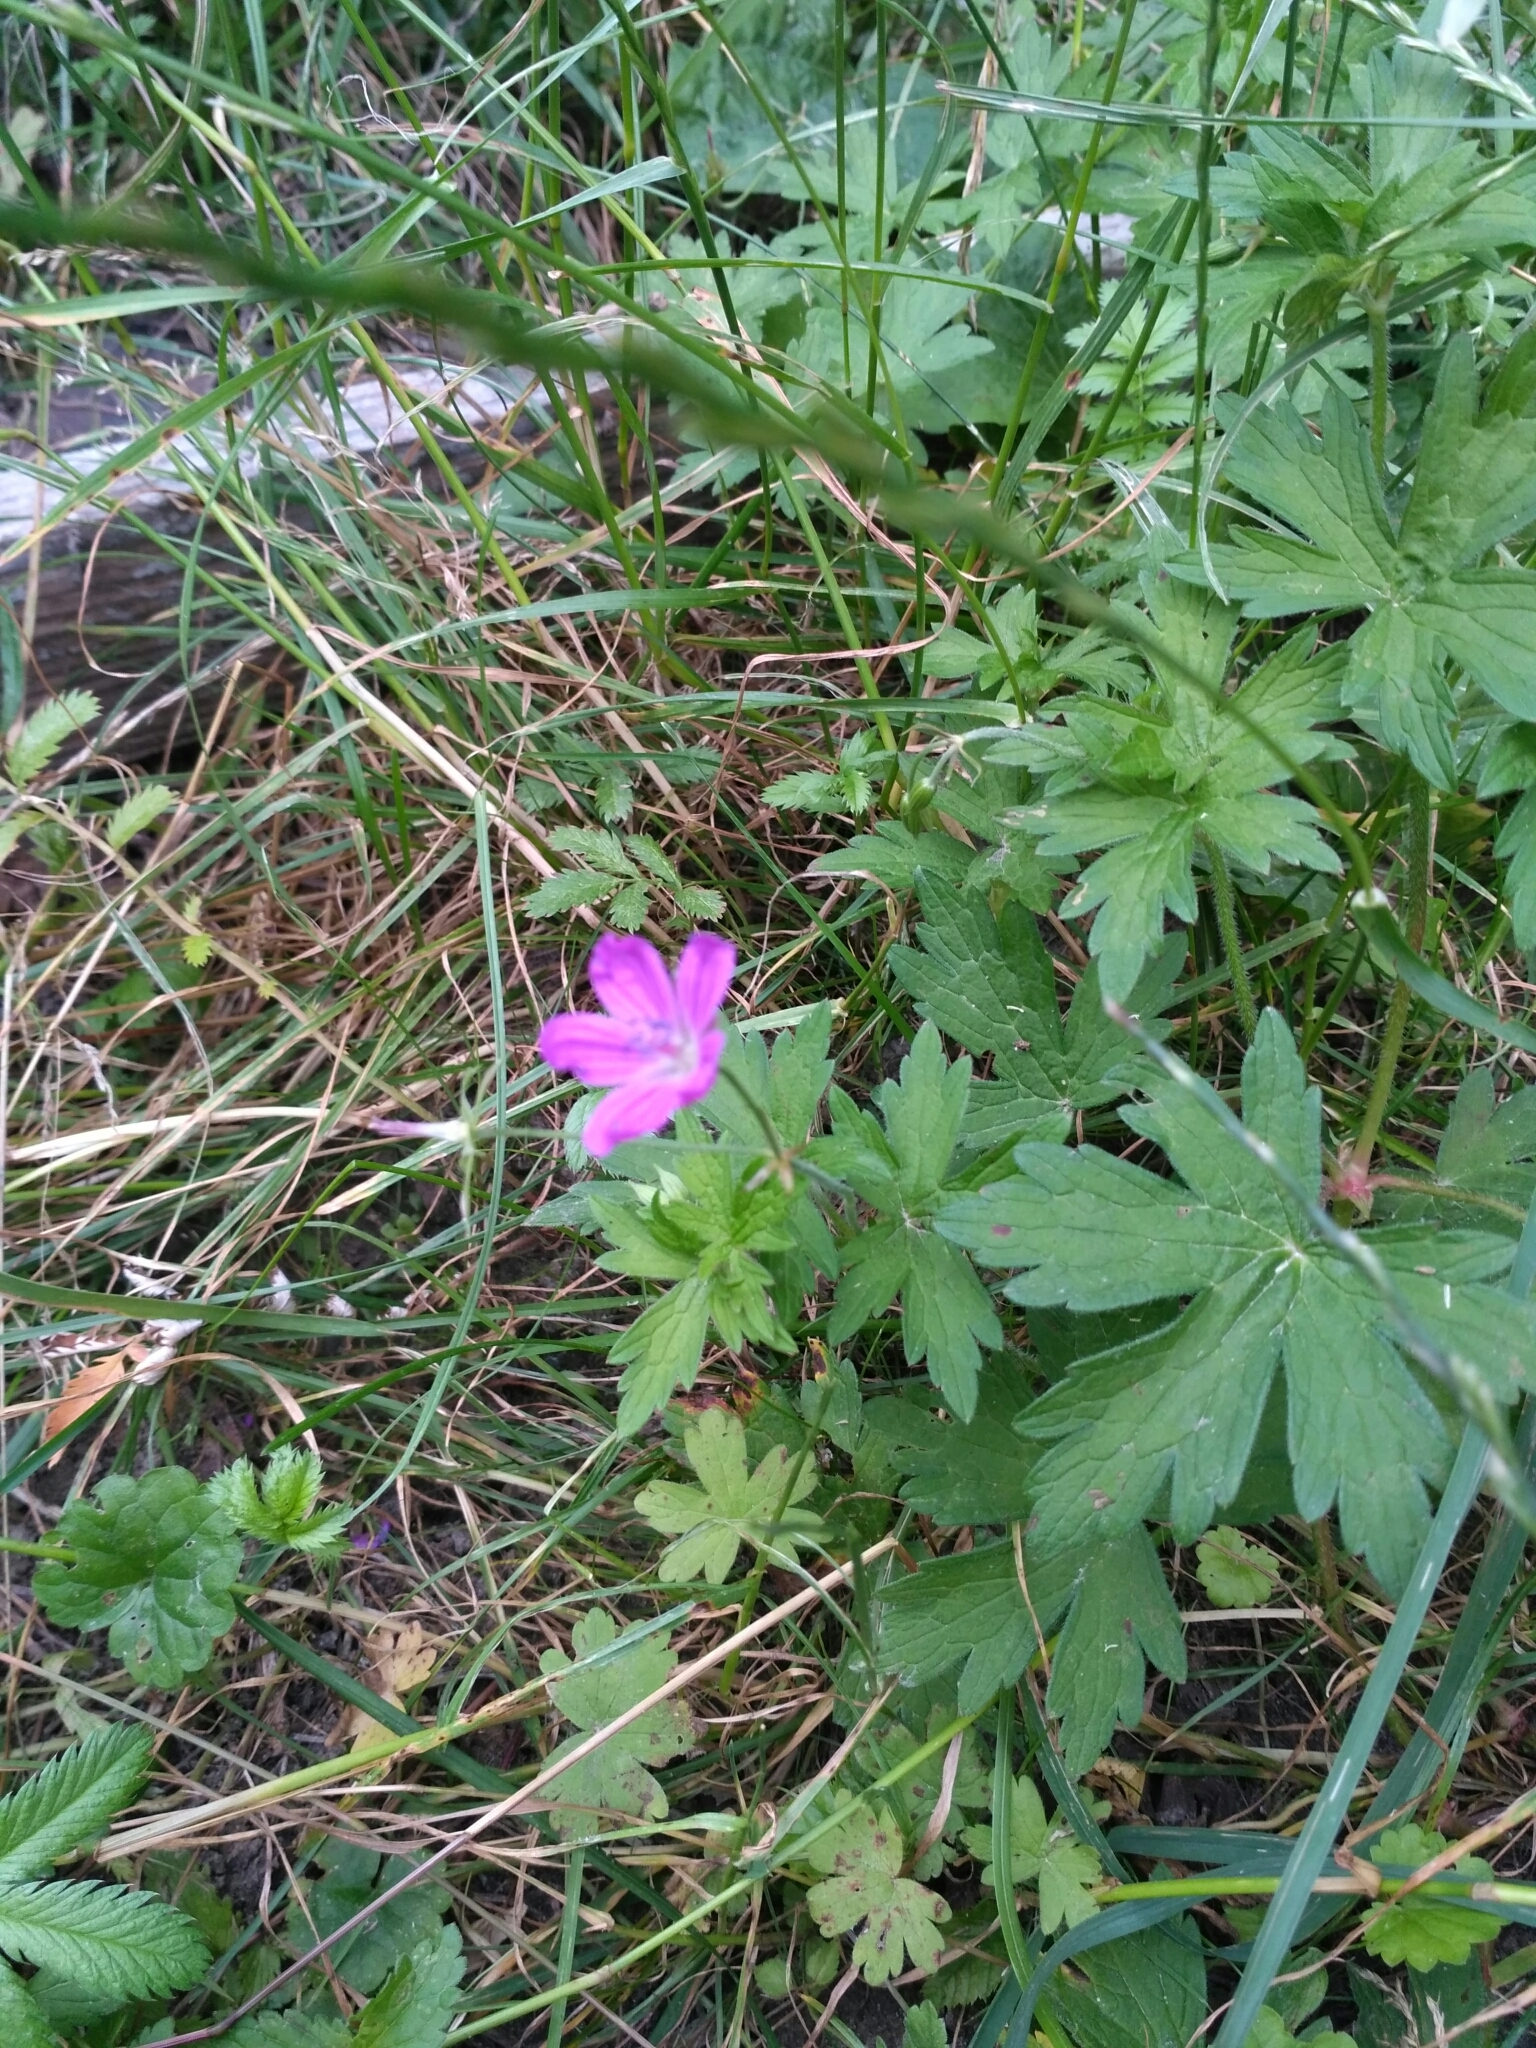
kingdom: Plantae
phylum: Tracheophyta
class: Magnoliopsida
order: Geraniales
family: Geraniaceae
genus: Geranium
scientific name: Geranium palustre
